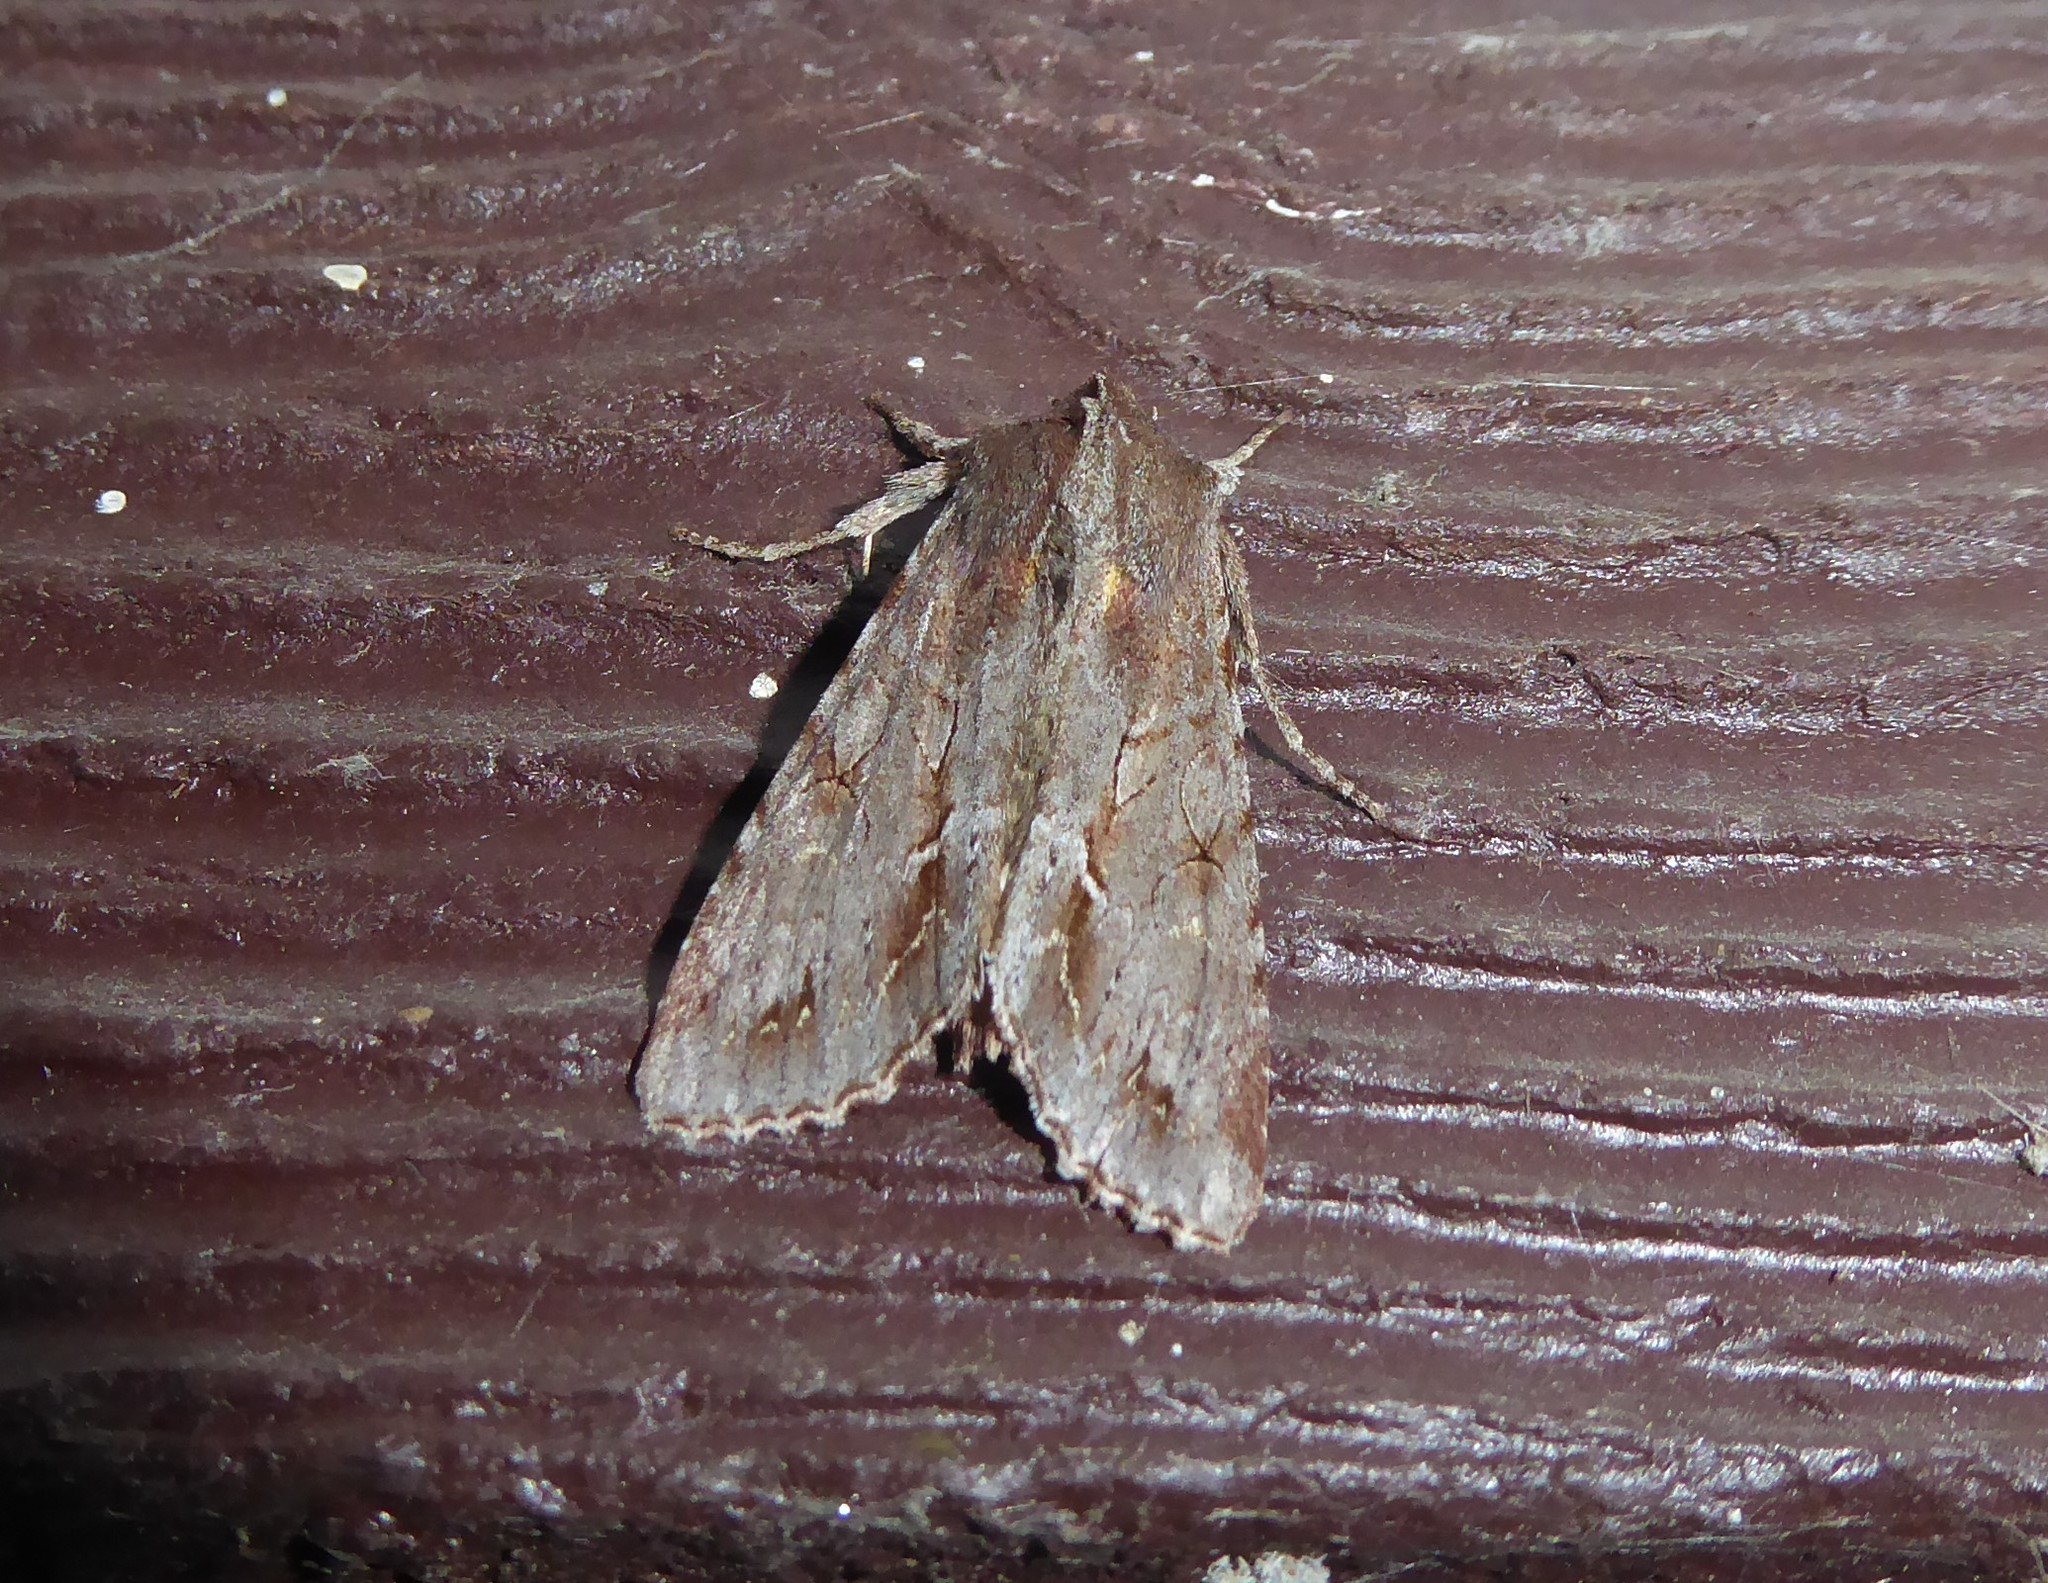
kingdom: Animalia
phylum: Arthropoda
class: Insecta
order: Lepidoptera
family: Noctuidae
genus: Ichneutica
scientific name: Ichneutica
